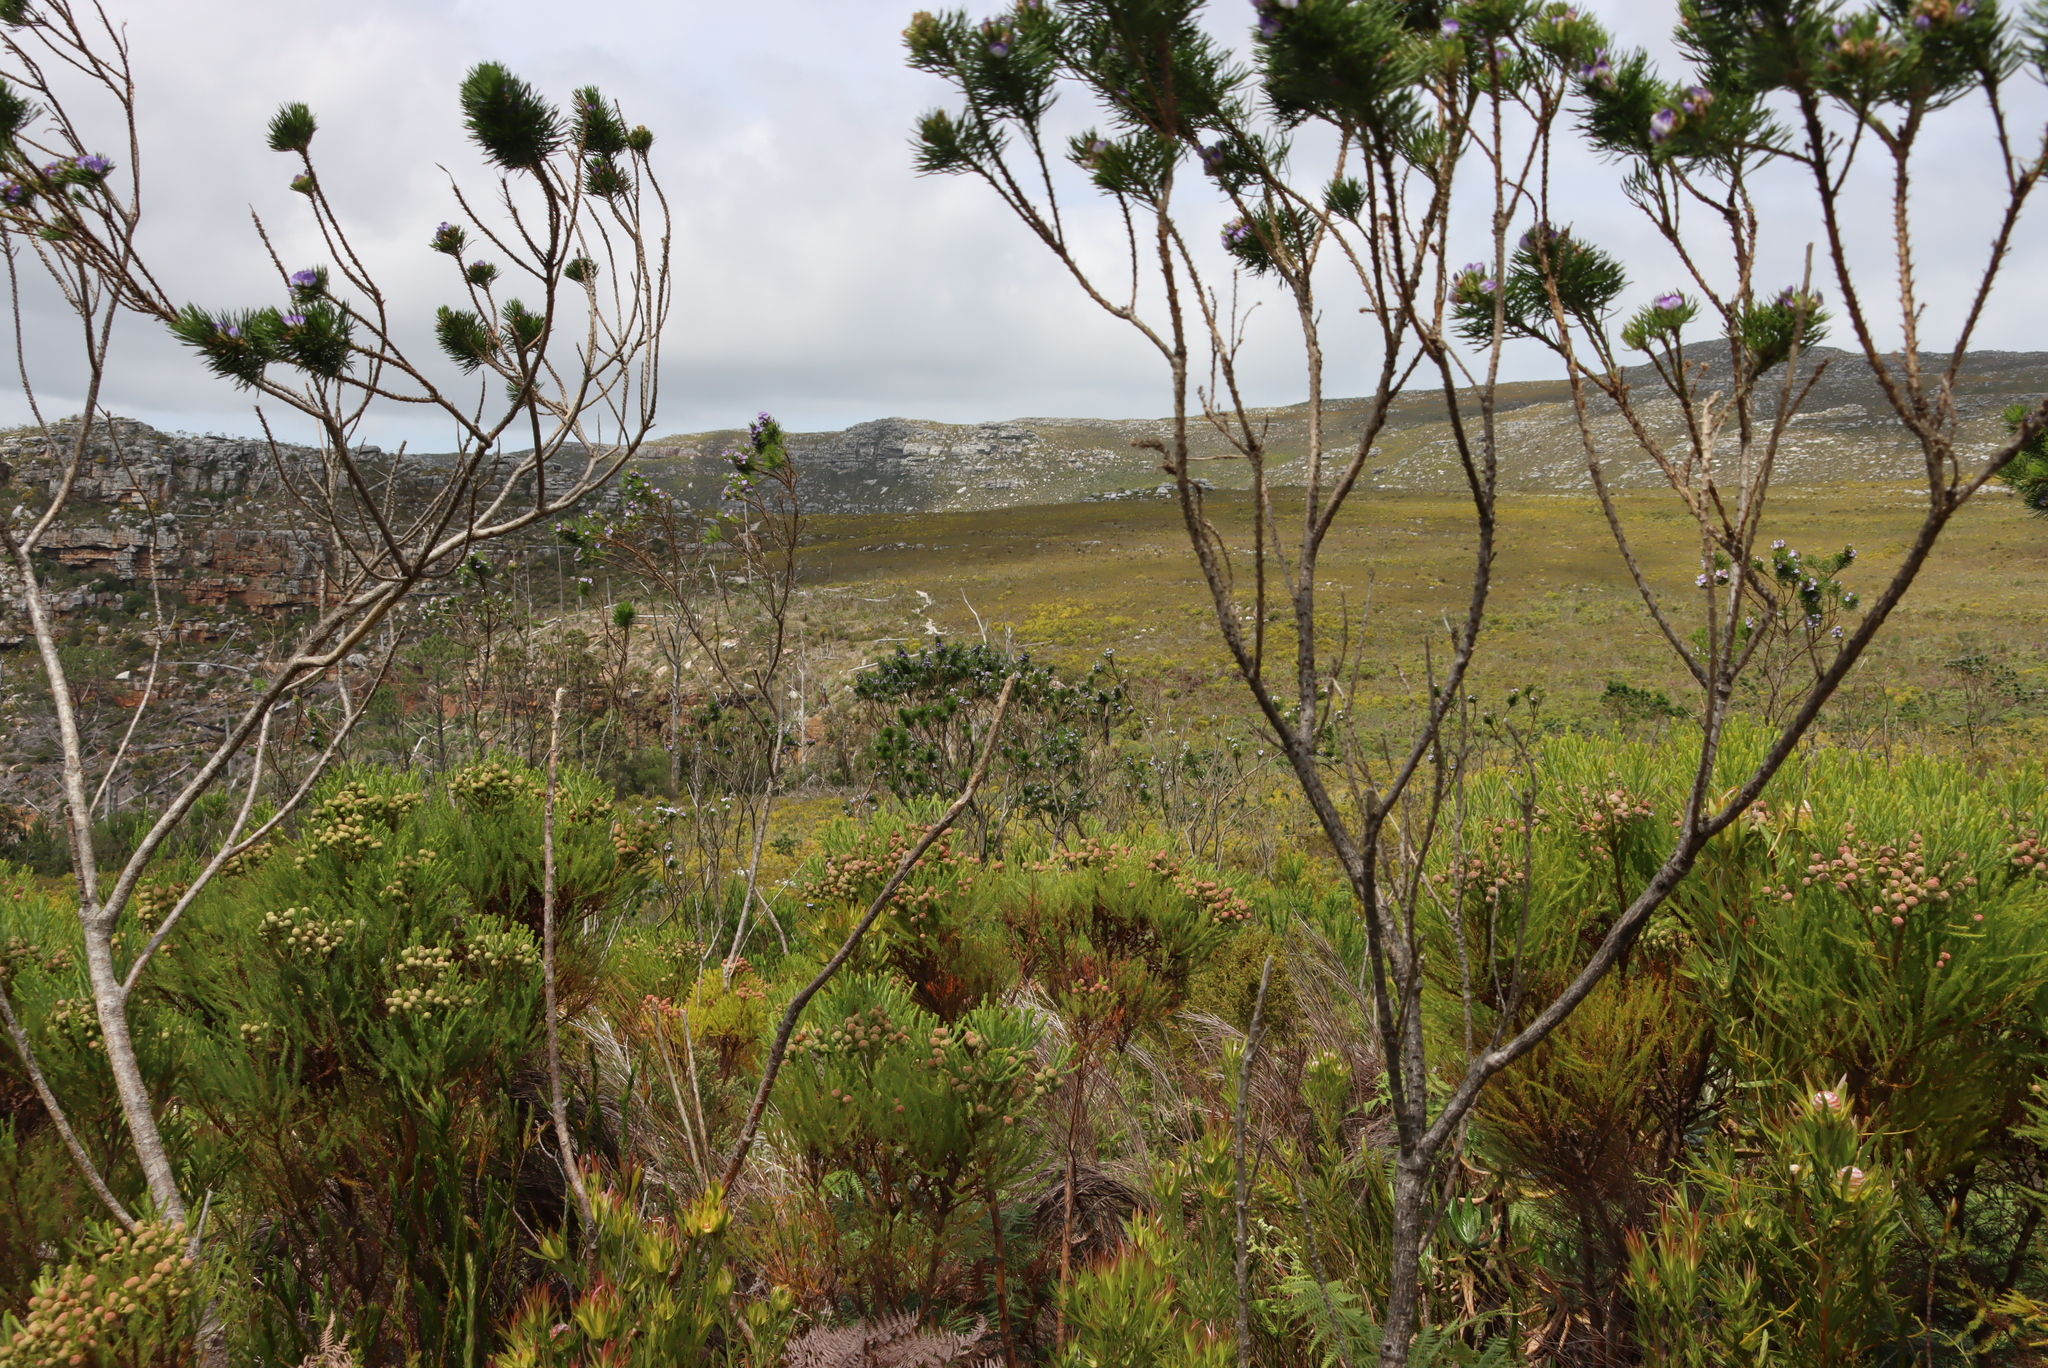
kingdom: Plantae
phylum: Tracheophyta
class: Magnoliopsida
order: Fabales
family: Fabaceae
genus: Psoralea
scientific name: Psoralea pinnata
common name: African scurfpea
